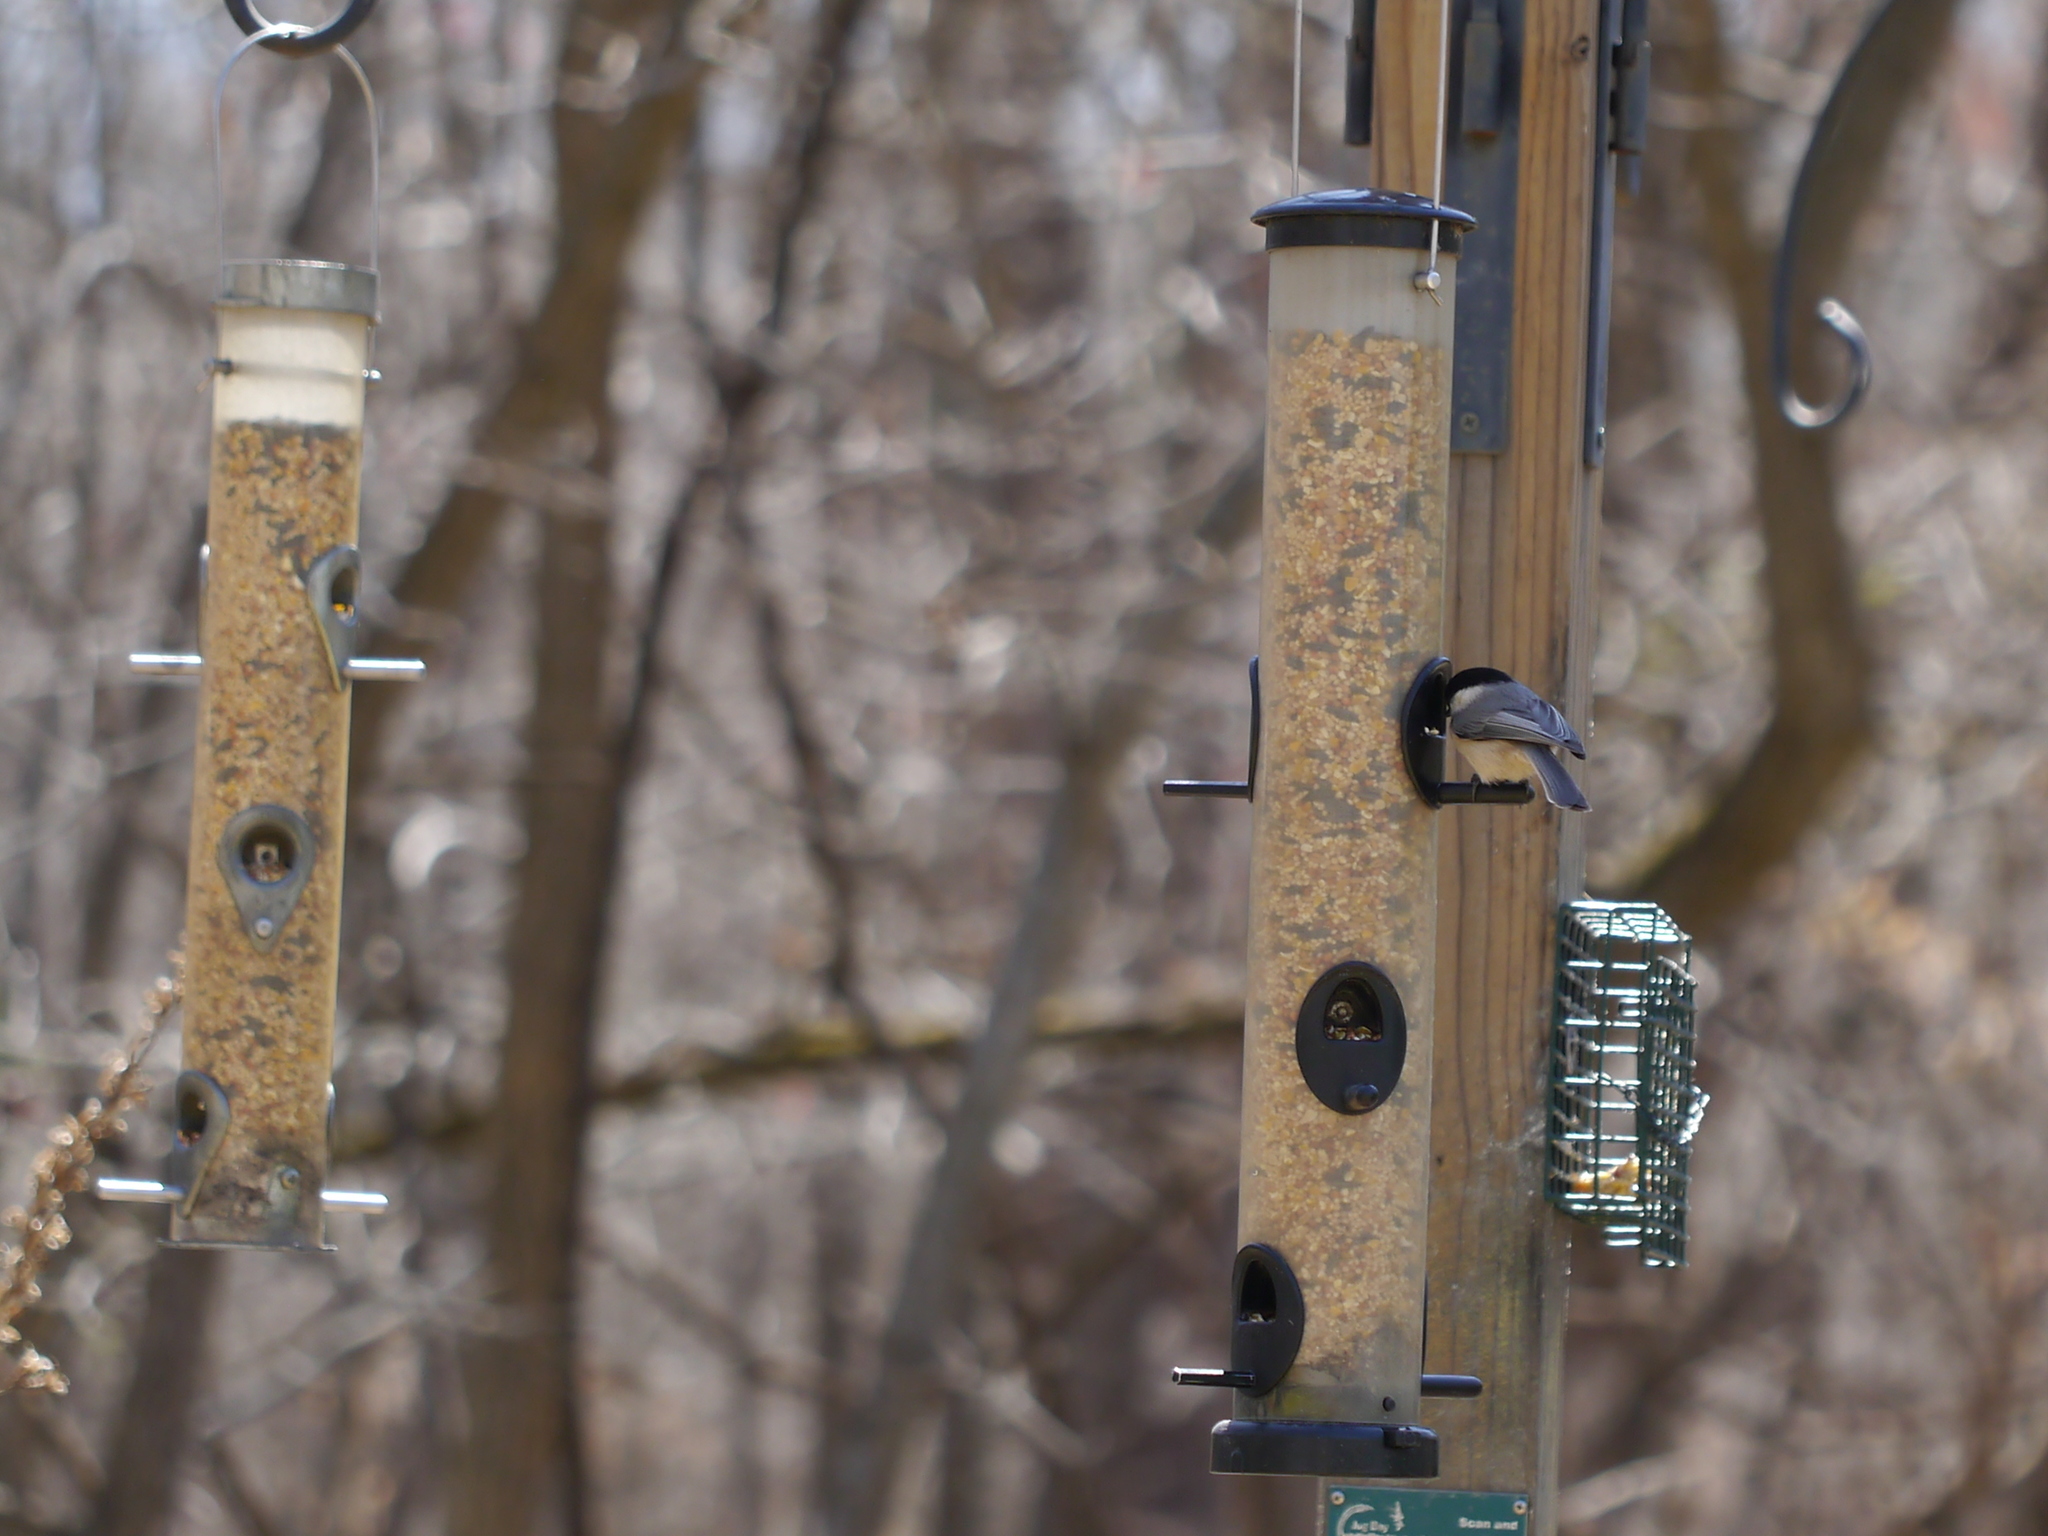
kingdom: Animalia
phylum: Chordata
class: Aves
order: Passeriformes
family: Paridae
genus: Poecile
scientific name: Poecile carolinensis
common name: Carolina chickadee
